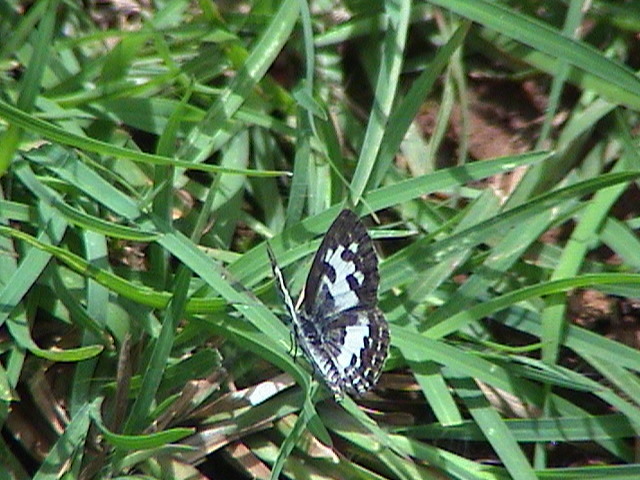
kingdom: Animalia
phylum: Arthropoda
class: Insecta
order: Lepidoptera
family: Lycaenidae
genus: Castalius
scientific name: Castalius rosimon
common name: Common pierrot
